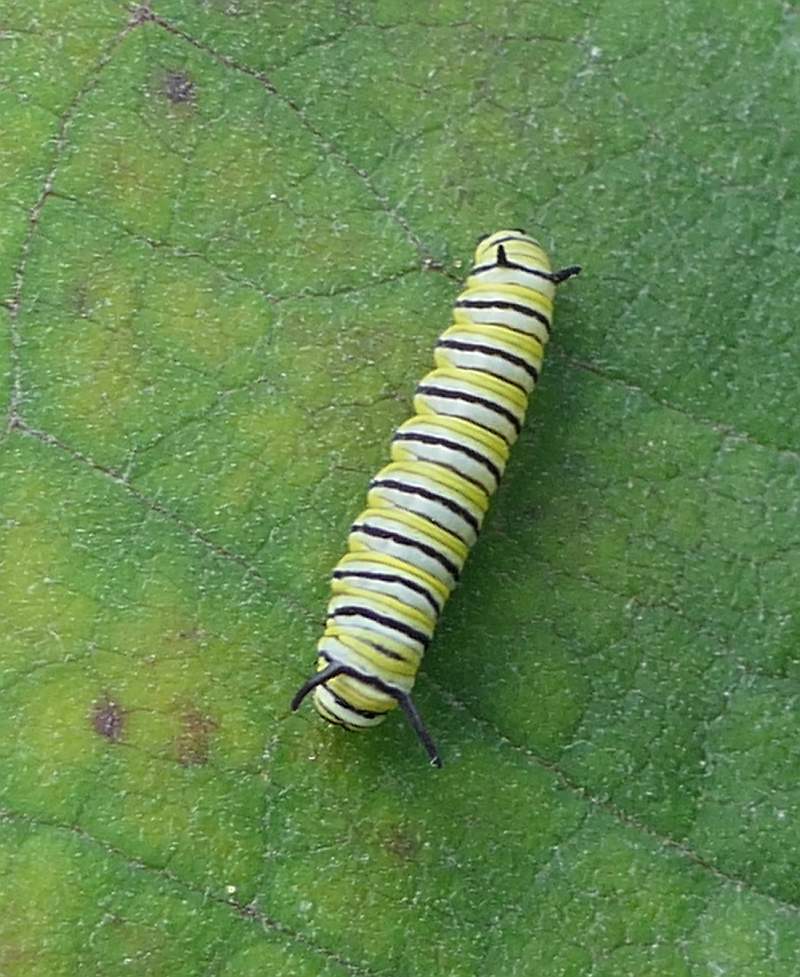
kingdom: Animalia
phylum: Arthropoda
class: Insecta
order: Lepidoptera
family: Nymphalidae
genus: Danaus
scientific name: Danaus plexippus
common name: Monarch
